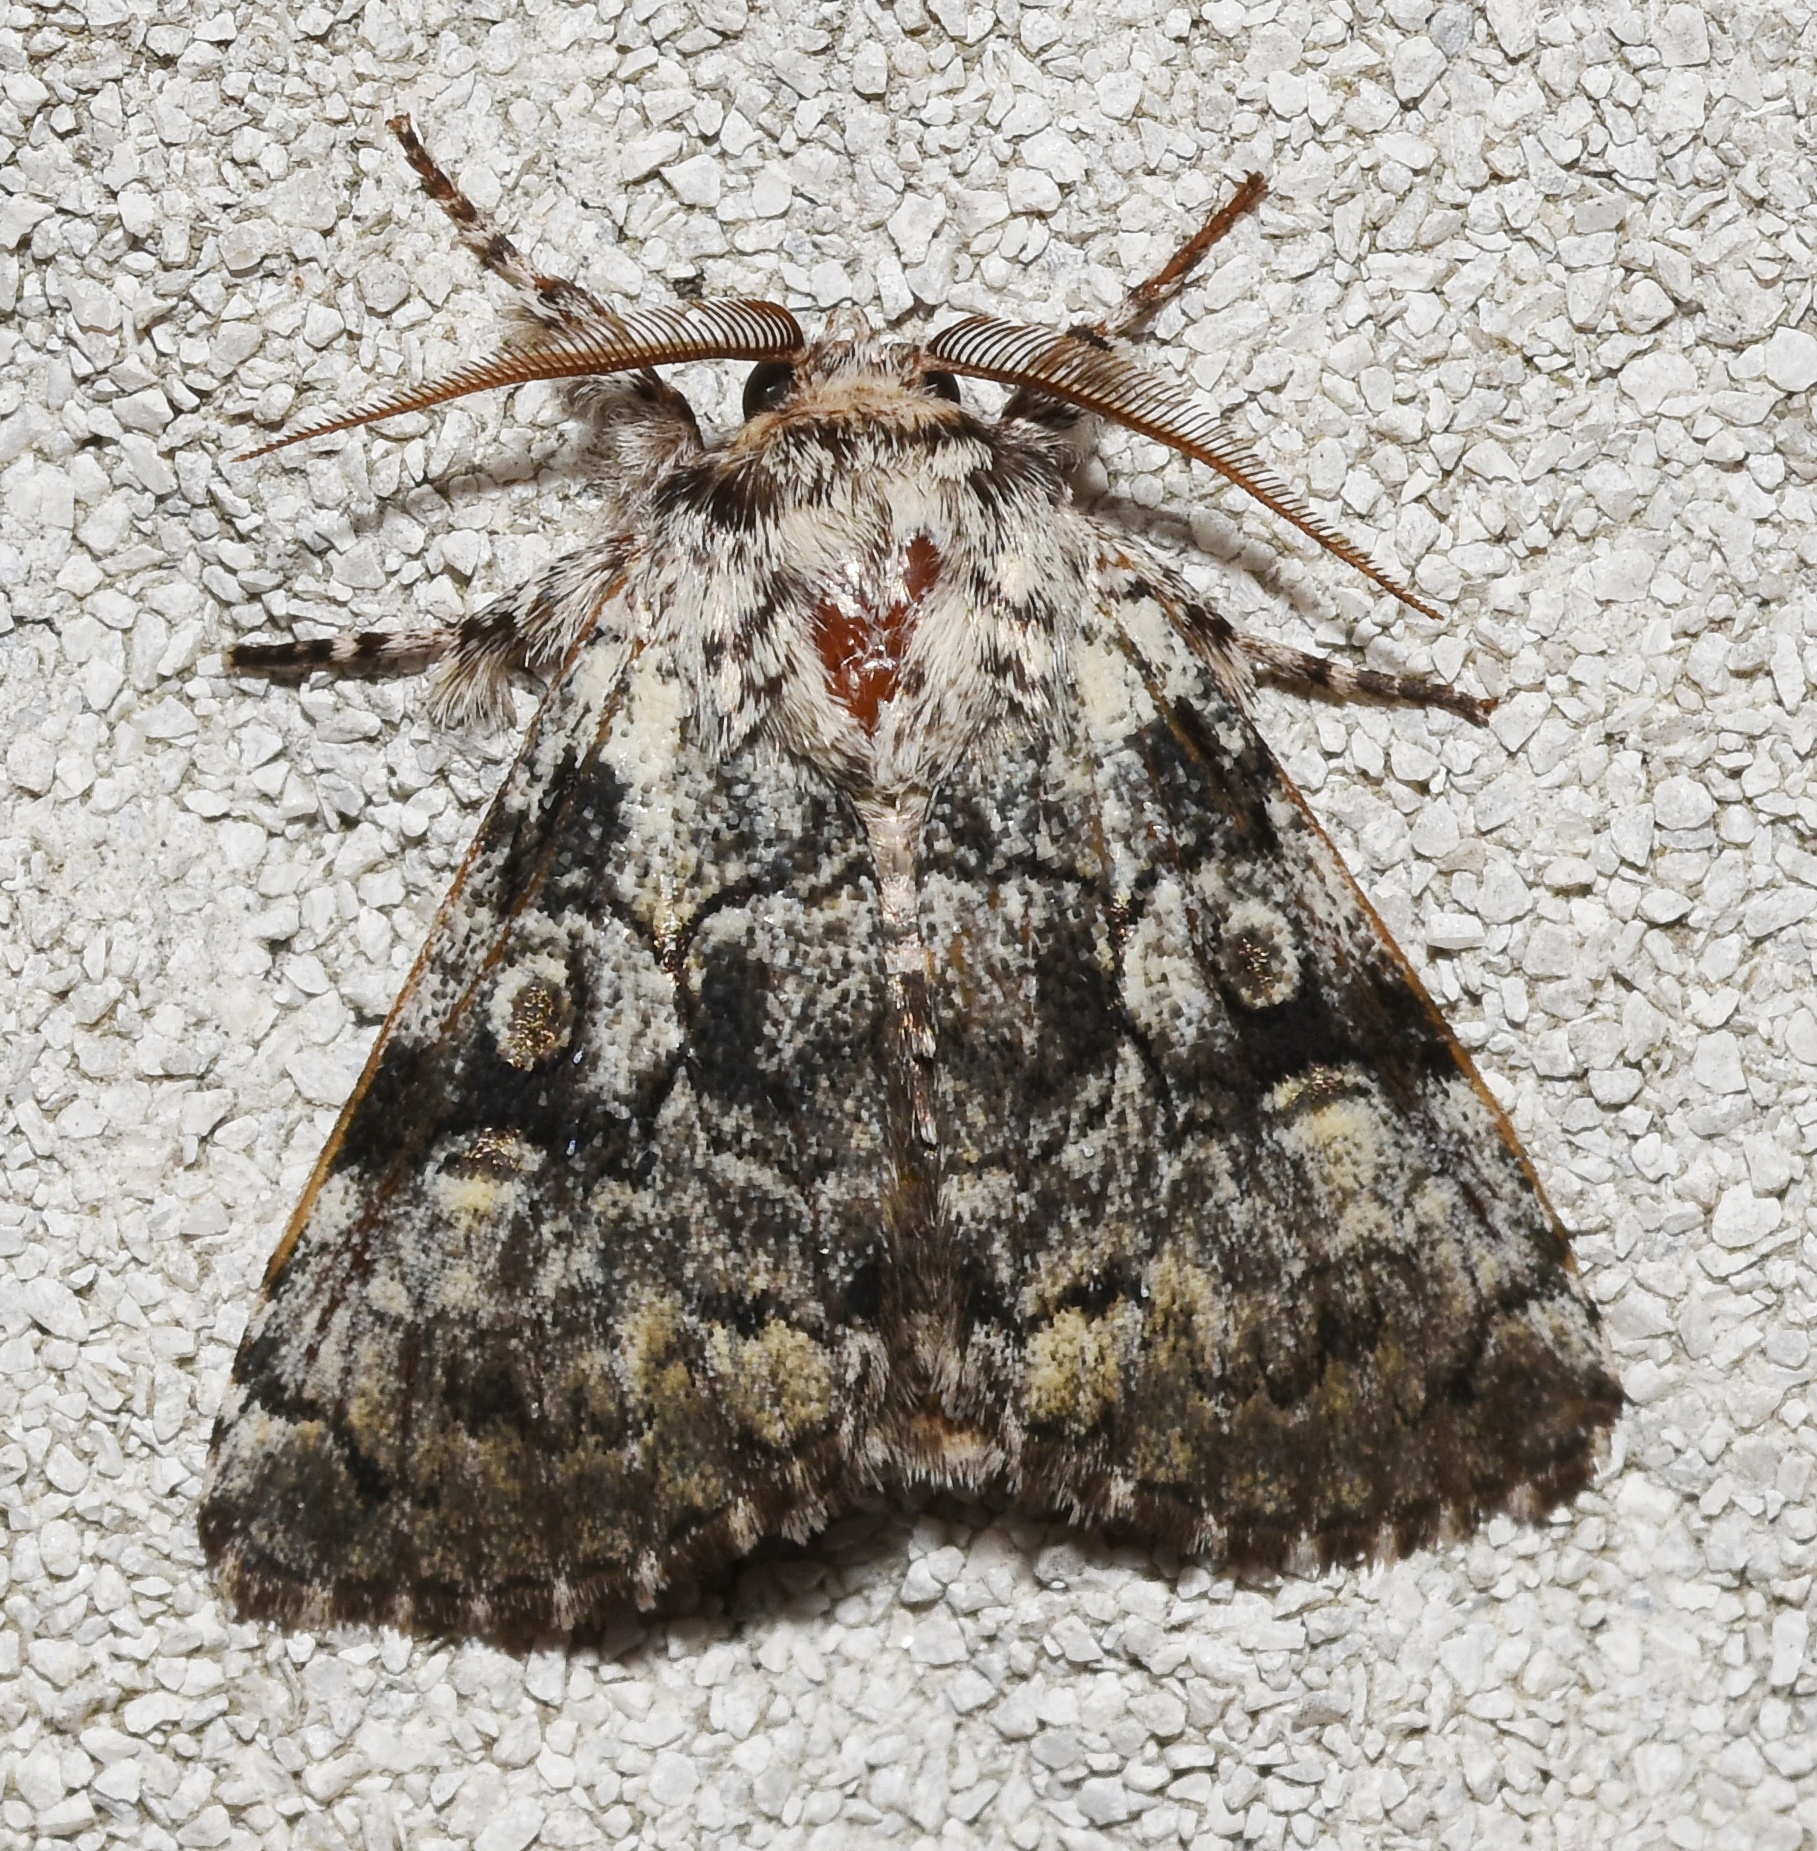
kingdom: Animalia
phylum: Arthropoda
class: Insecta
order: Lepidoptera
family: Noctuidae
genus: Charadra
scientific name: Charadra deridens
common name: Marbled tuffet
